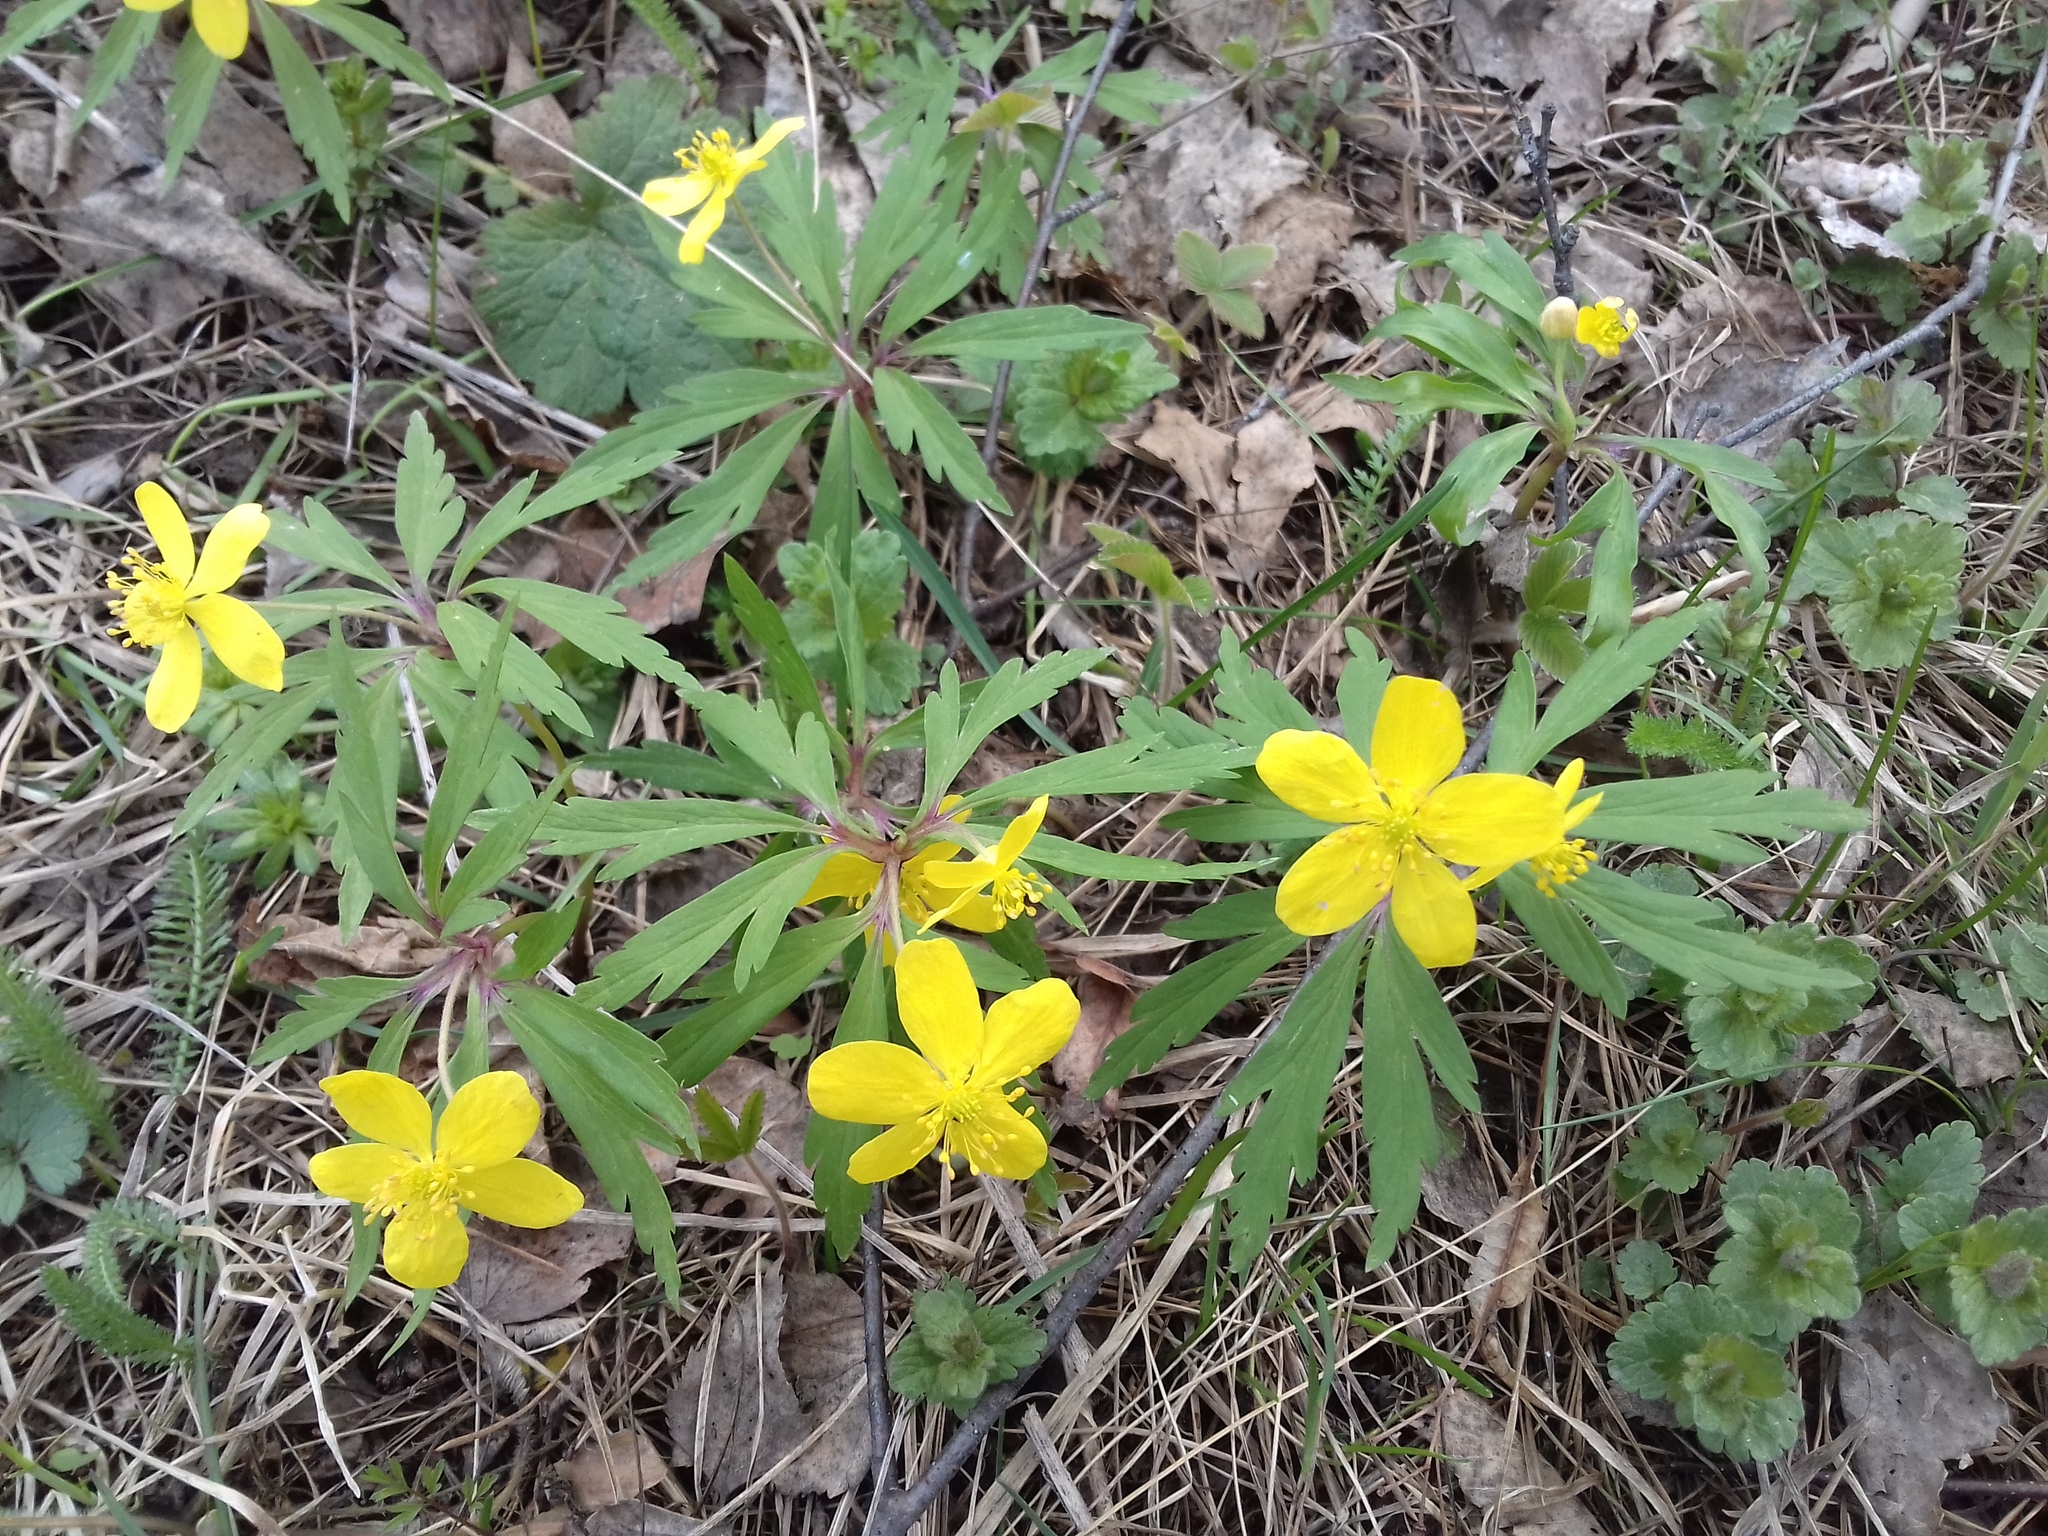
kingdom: Plantae
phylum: Tracheophyta
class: Magnoliopsida
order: Ranunculales
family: Ranunculaceae
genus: Anemone
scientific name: Anemone ranunculoides
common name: Yellow anemone
